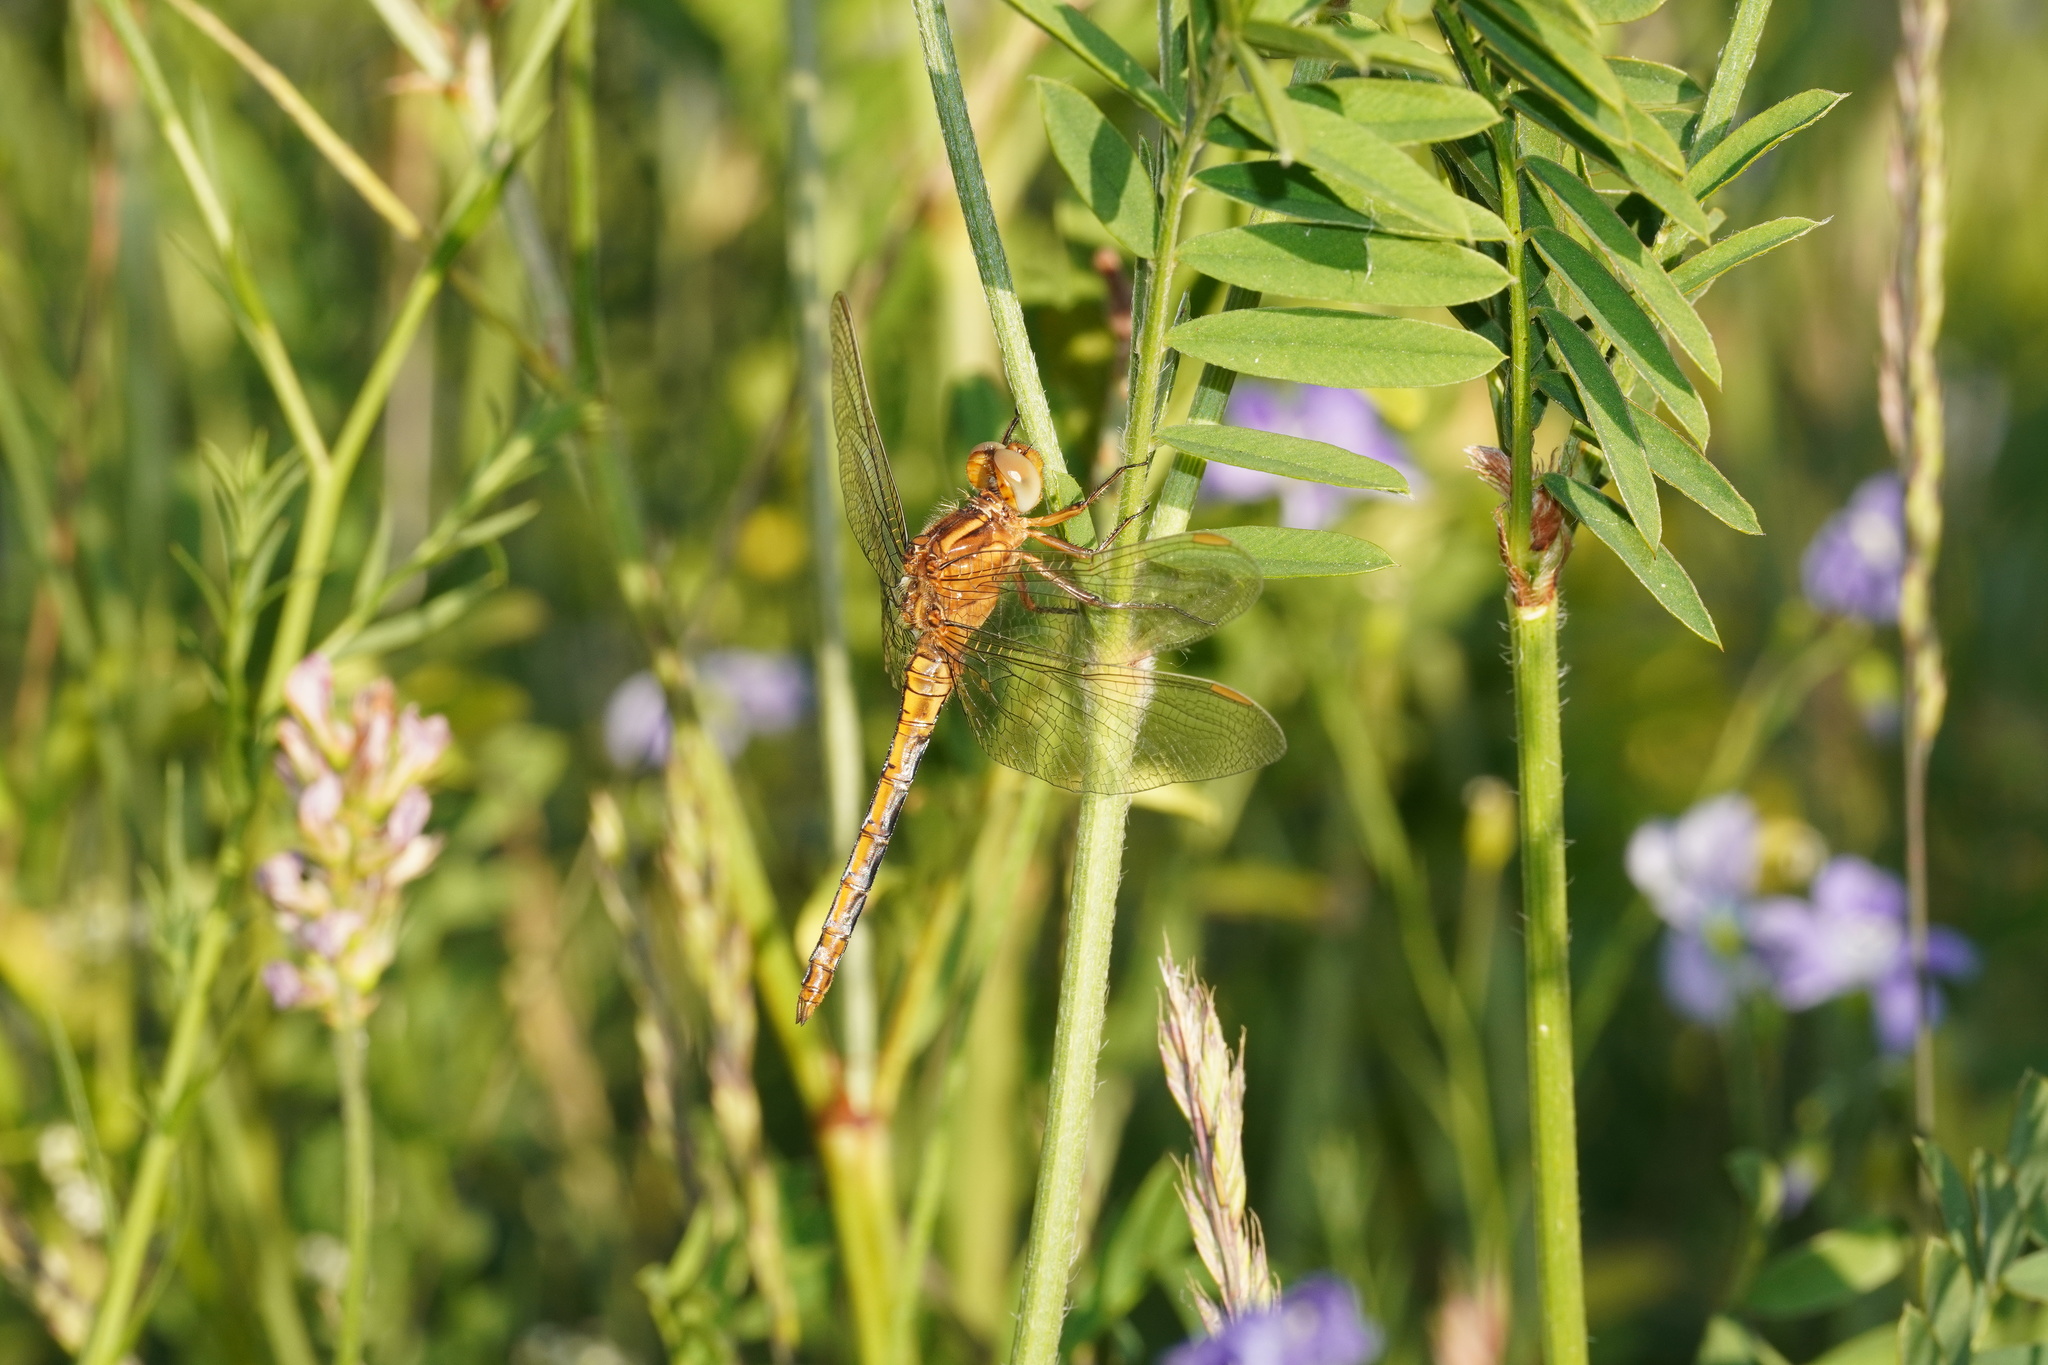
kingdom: Animalia
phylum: Arthropoda
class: Insecta
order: Odonata
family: Libellulidae
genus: Orthetrum
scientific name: Orthetrum coerulescens
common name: Keeled skimmer
